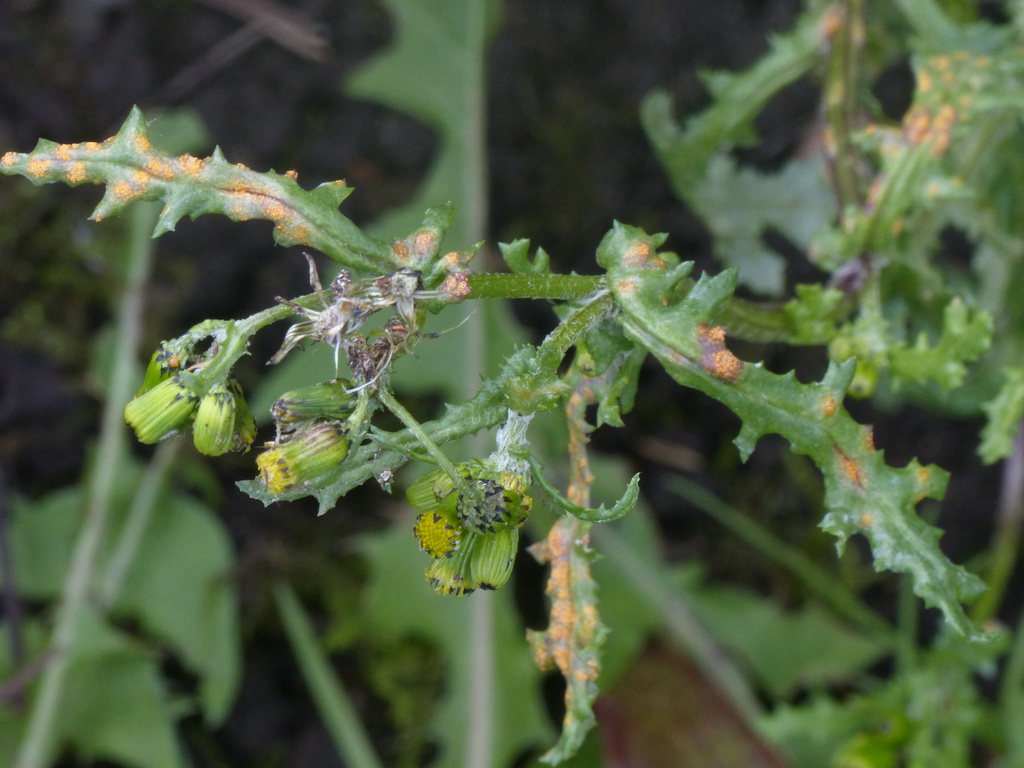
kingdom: Fungi
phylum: Basidiomycota
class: Pucciniomycetes
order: Pucciniales
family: Pucciniaceae
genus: Puccinia
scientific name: Puccinia lagenophorae
